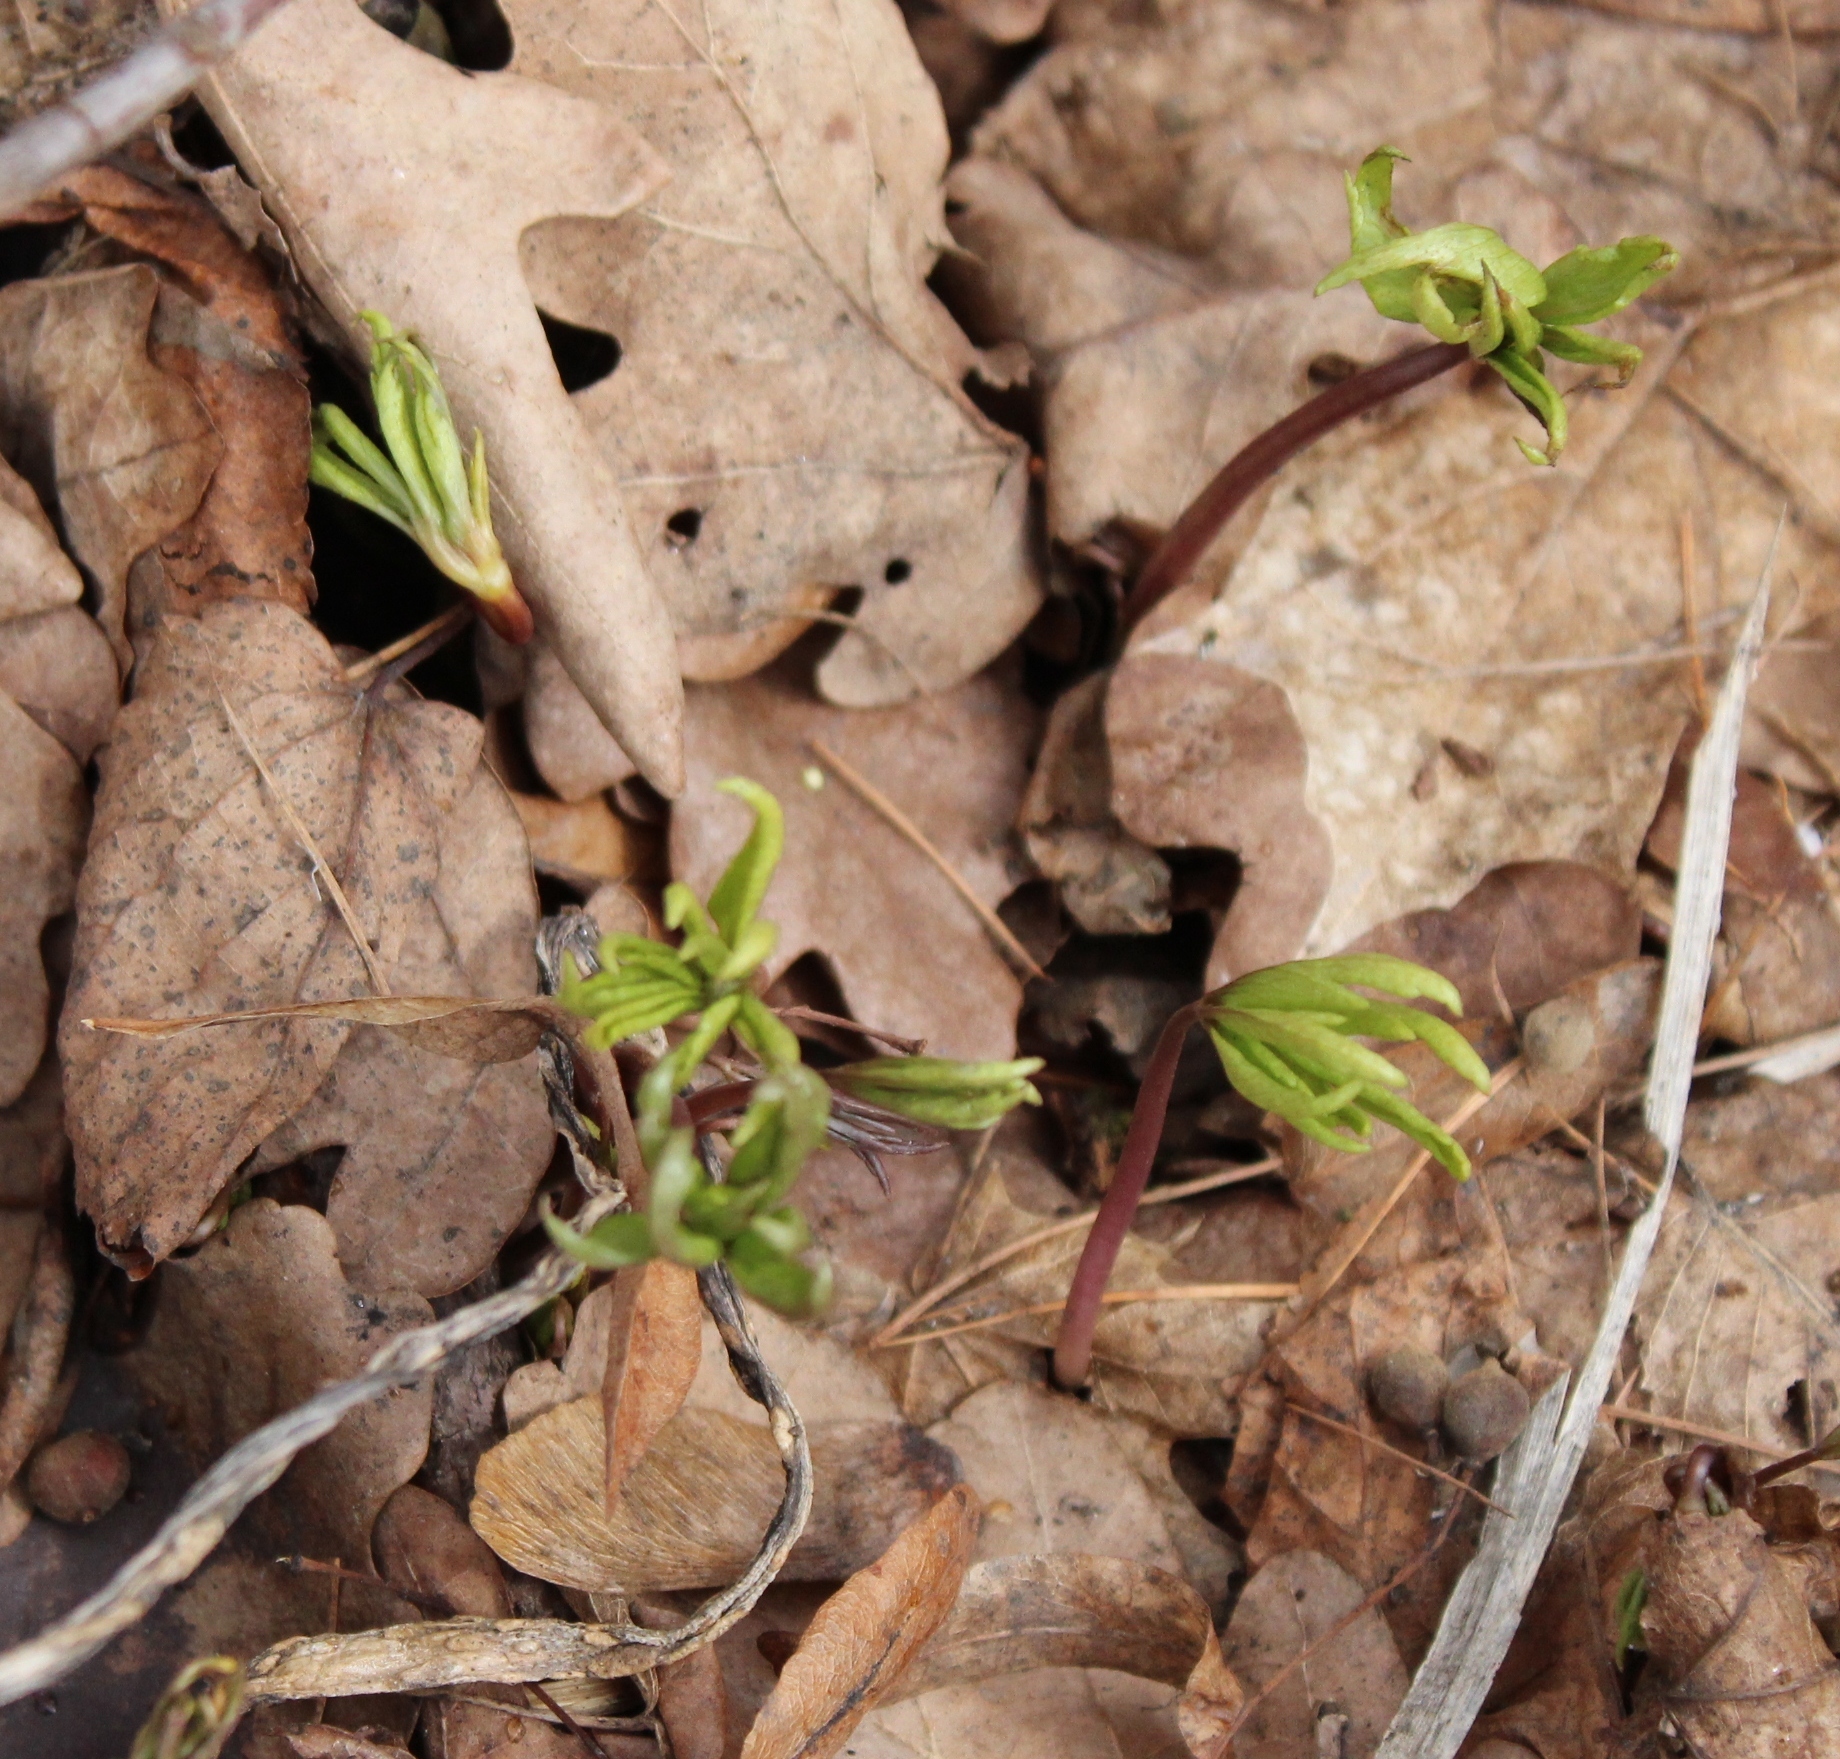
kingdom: Plantae
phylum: Tracheophyta
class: Magnoliopsida
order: Ranunculales
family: Ranunculaceae
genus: Anemone
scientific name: Anemone ranunculoides
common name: Yellow anemone
